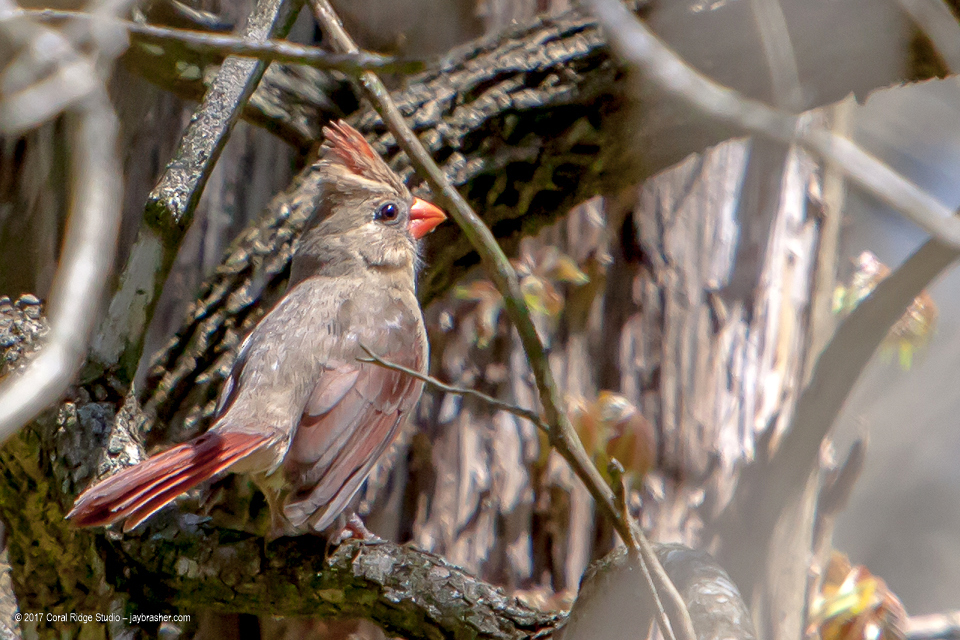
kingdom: Animalia
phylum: Chordata
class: Aves
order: Passeriformes
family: Cardinalidae
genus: Cardinalis
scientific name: Cardinalis cardinalis
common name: Northern cardinal
